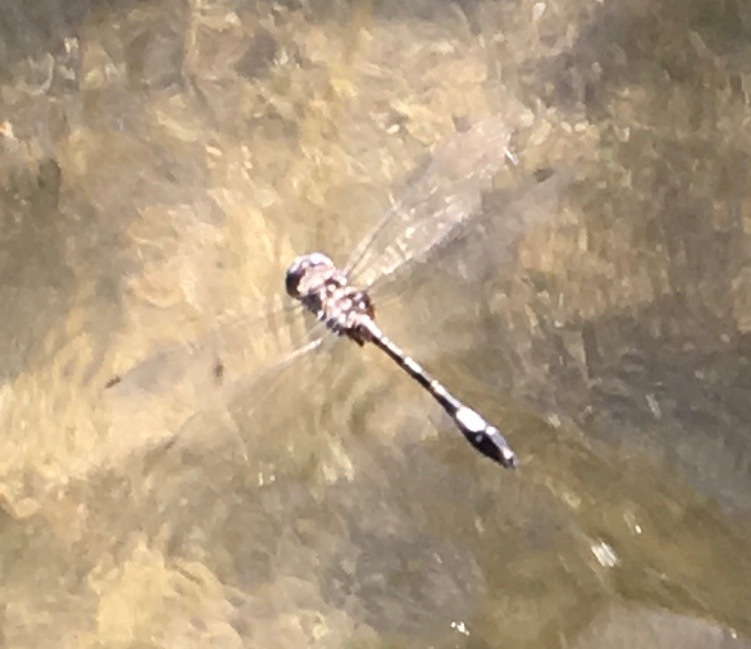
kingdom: Animalia
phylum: Arthropoda
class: Insecta
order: Odonata
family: Libellulidae
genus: Brechmorhoga
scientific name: Brechmorhoga mendax
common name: Pale-faced clubskimmer
